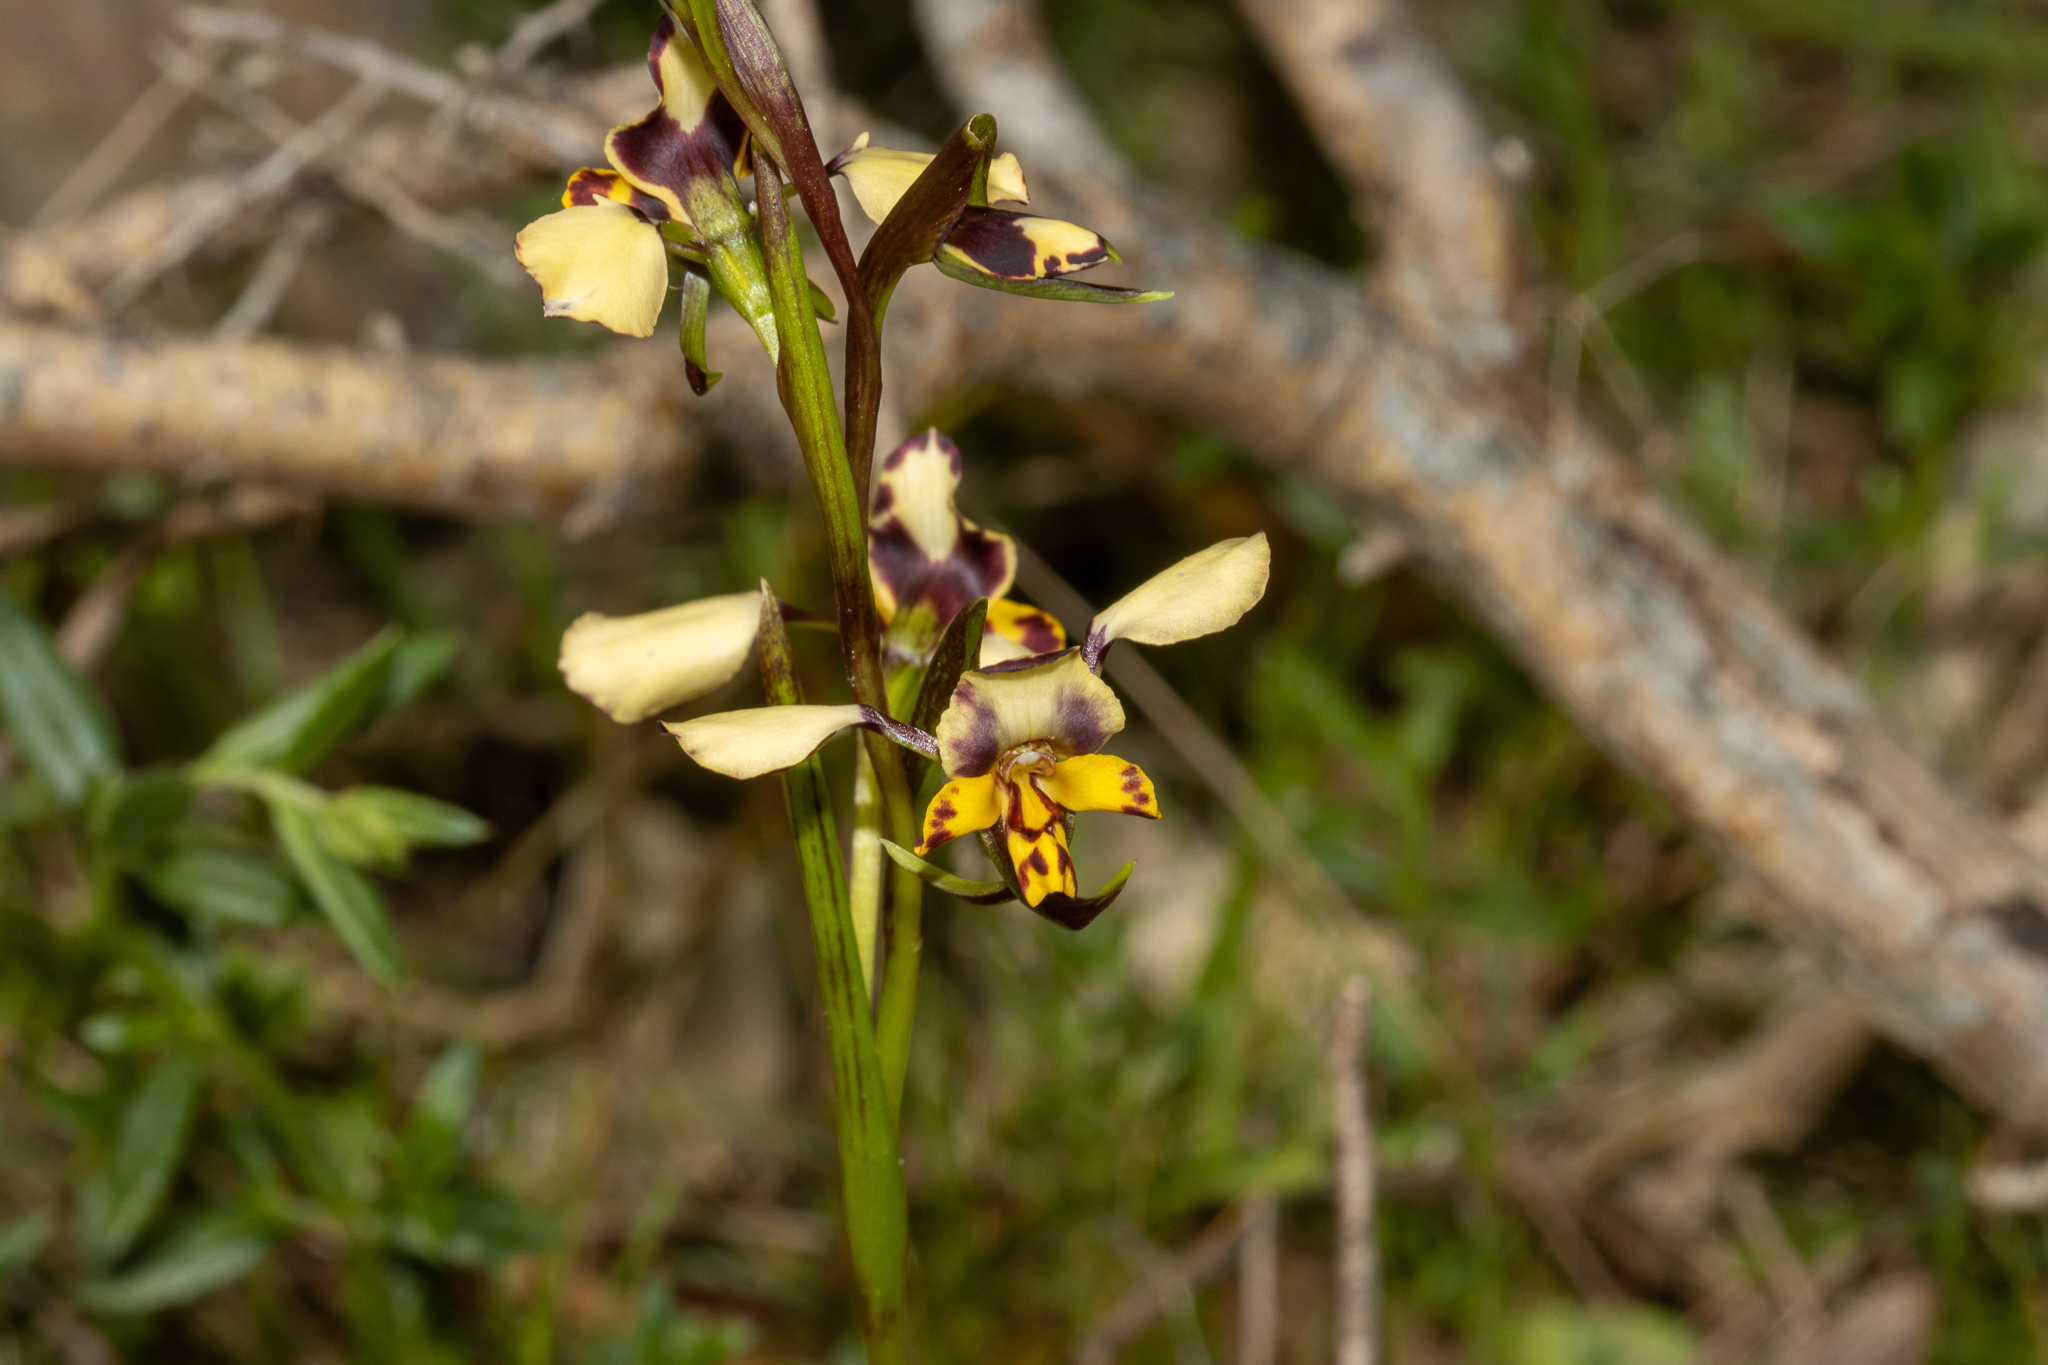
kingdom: Plantae
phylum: Tracheophyta
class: Liliopsida
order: Asparagales
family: Orchidaceae
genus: Diuris
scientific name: Diuris pardina
